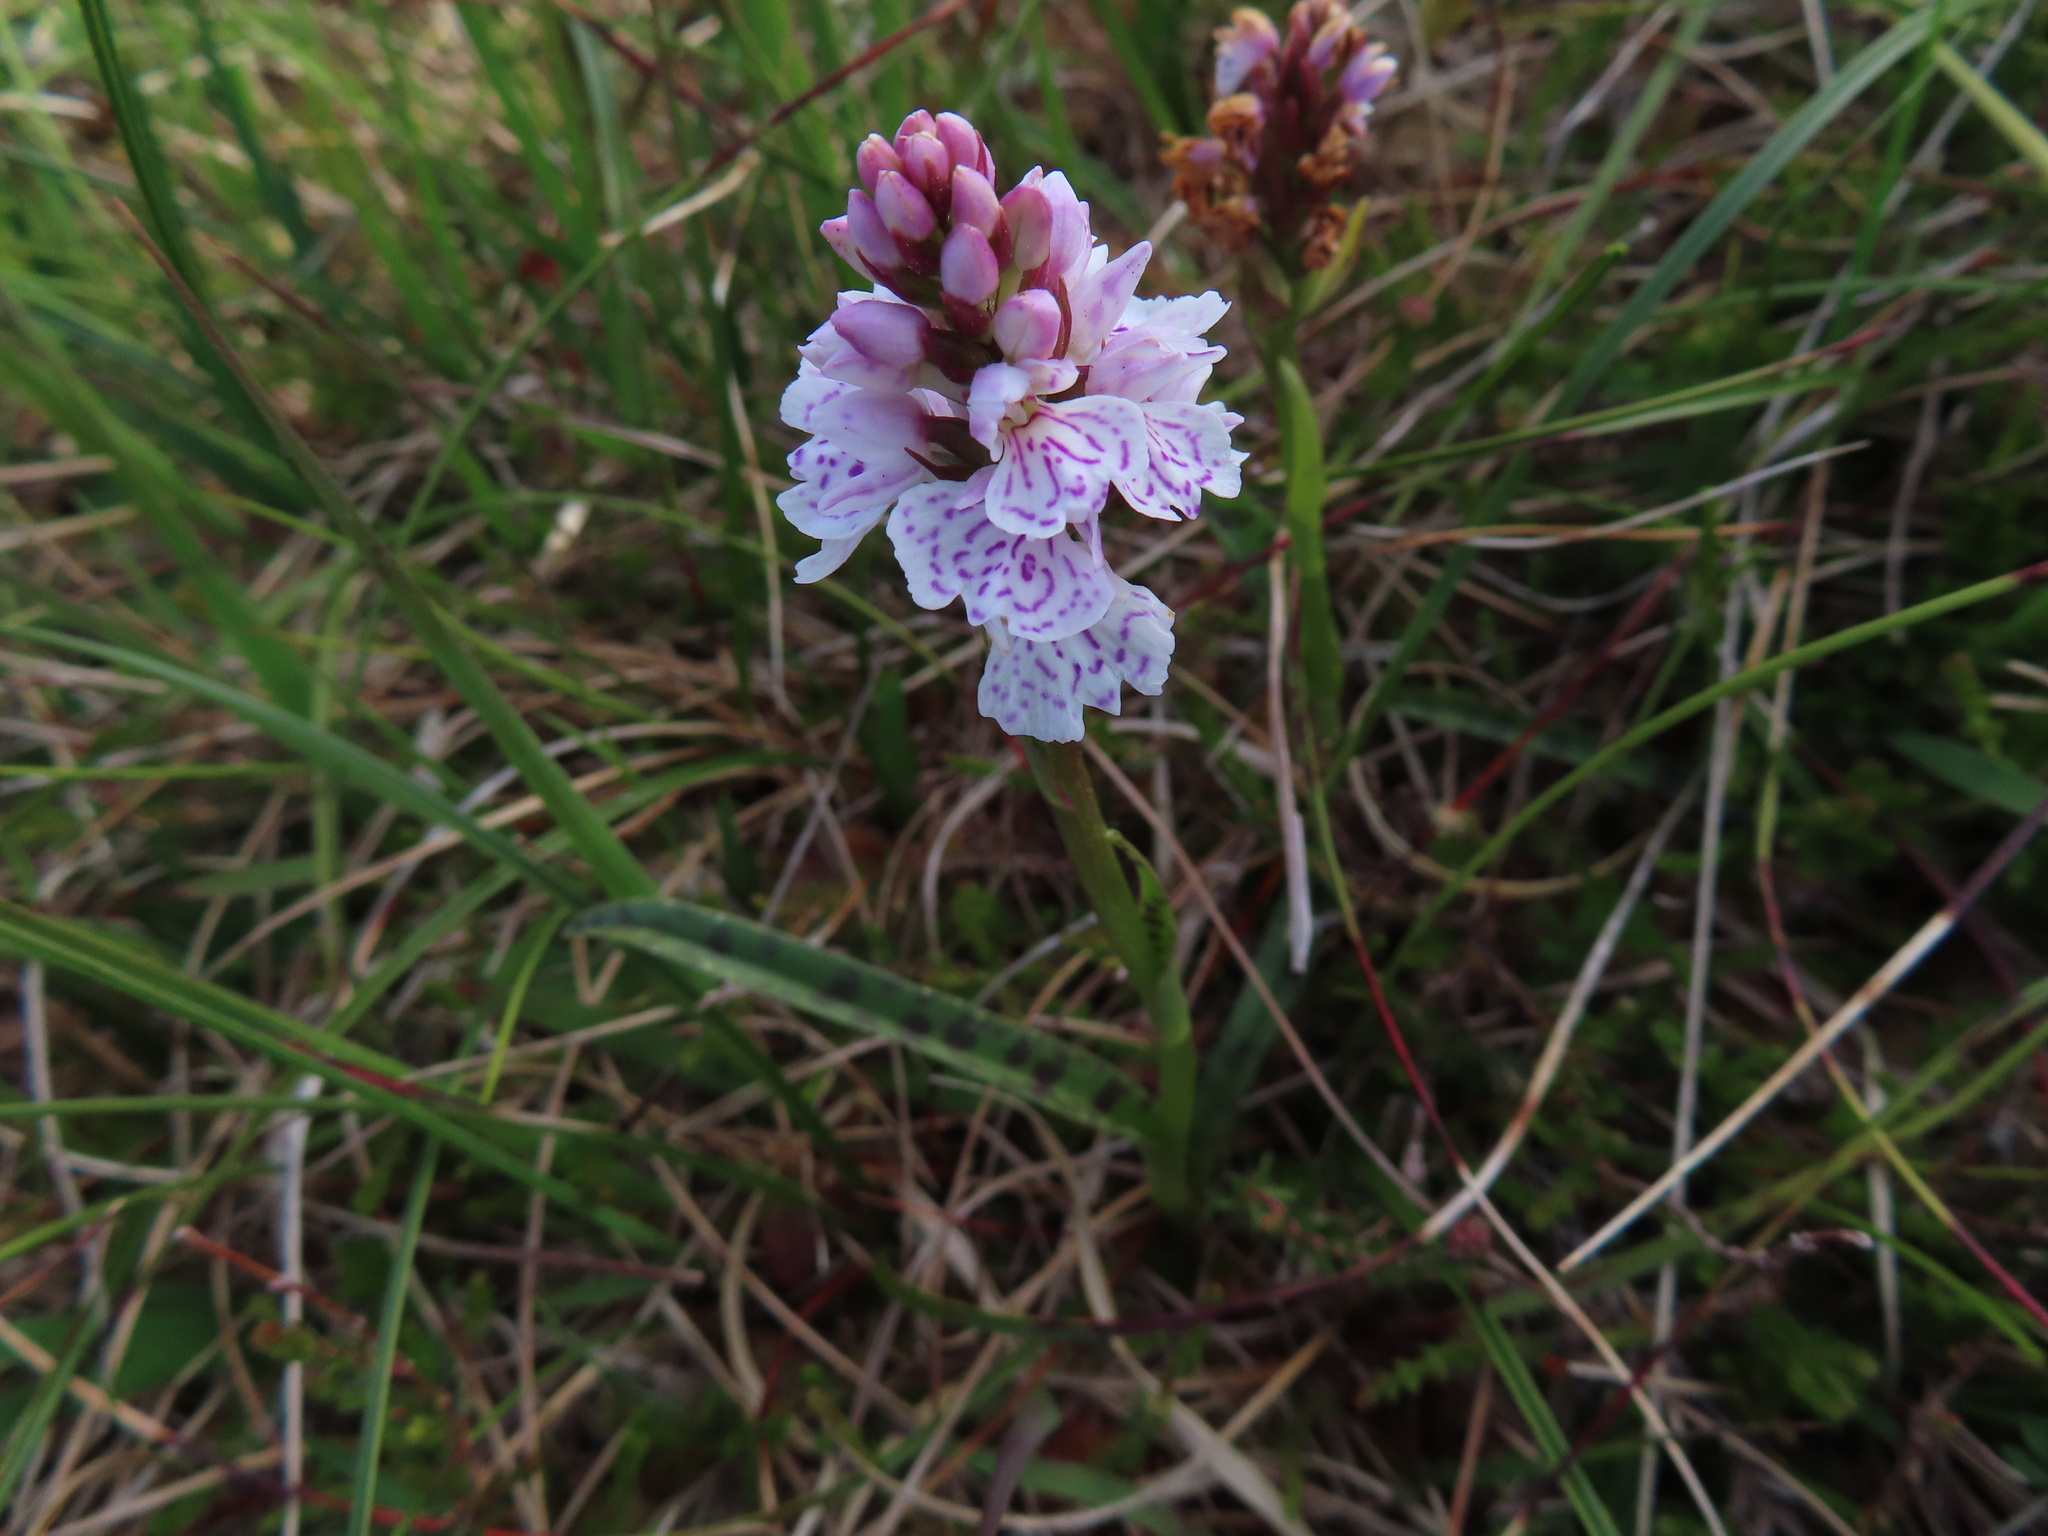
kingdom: Plantae
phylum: Tracheophyta
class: Liliopsida
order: Asparagales
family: Orchidaceae
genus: Dactylorhiza
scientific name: Dactylorhiza maculata
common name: Heath spotted-orchid
